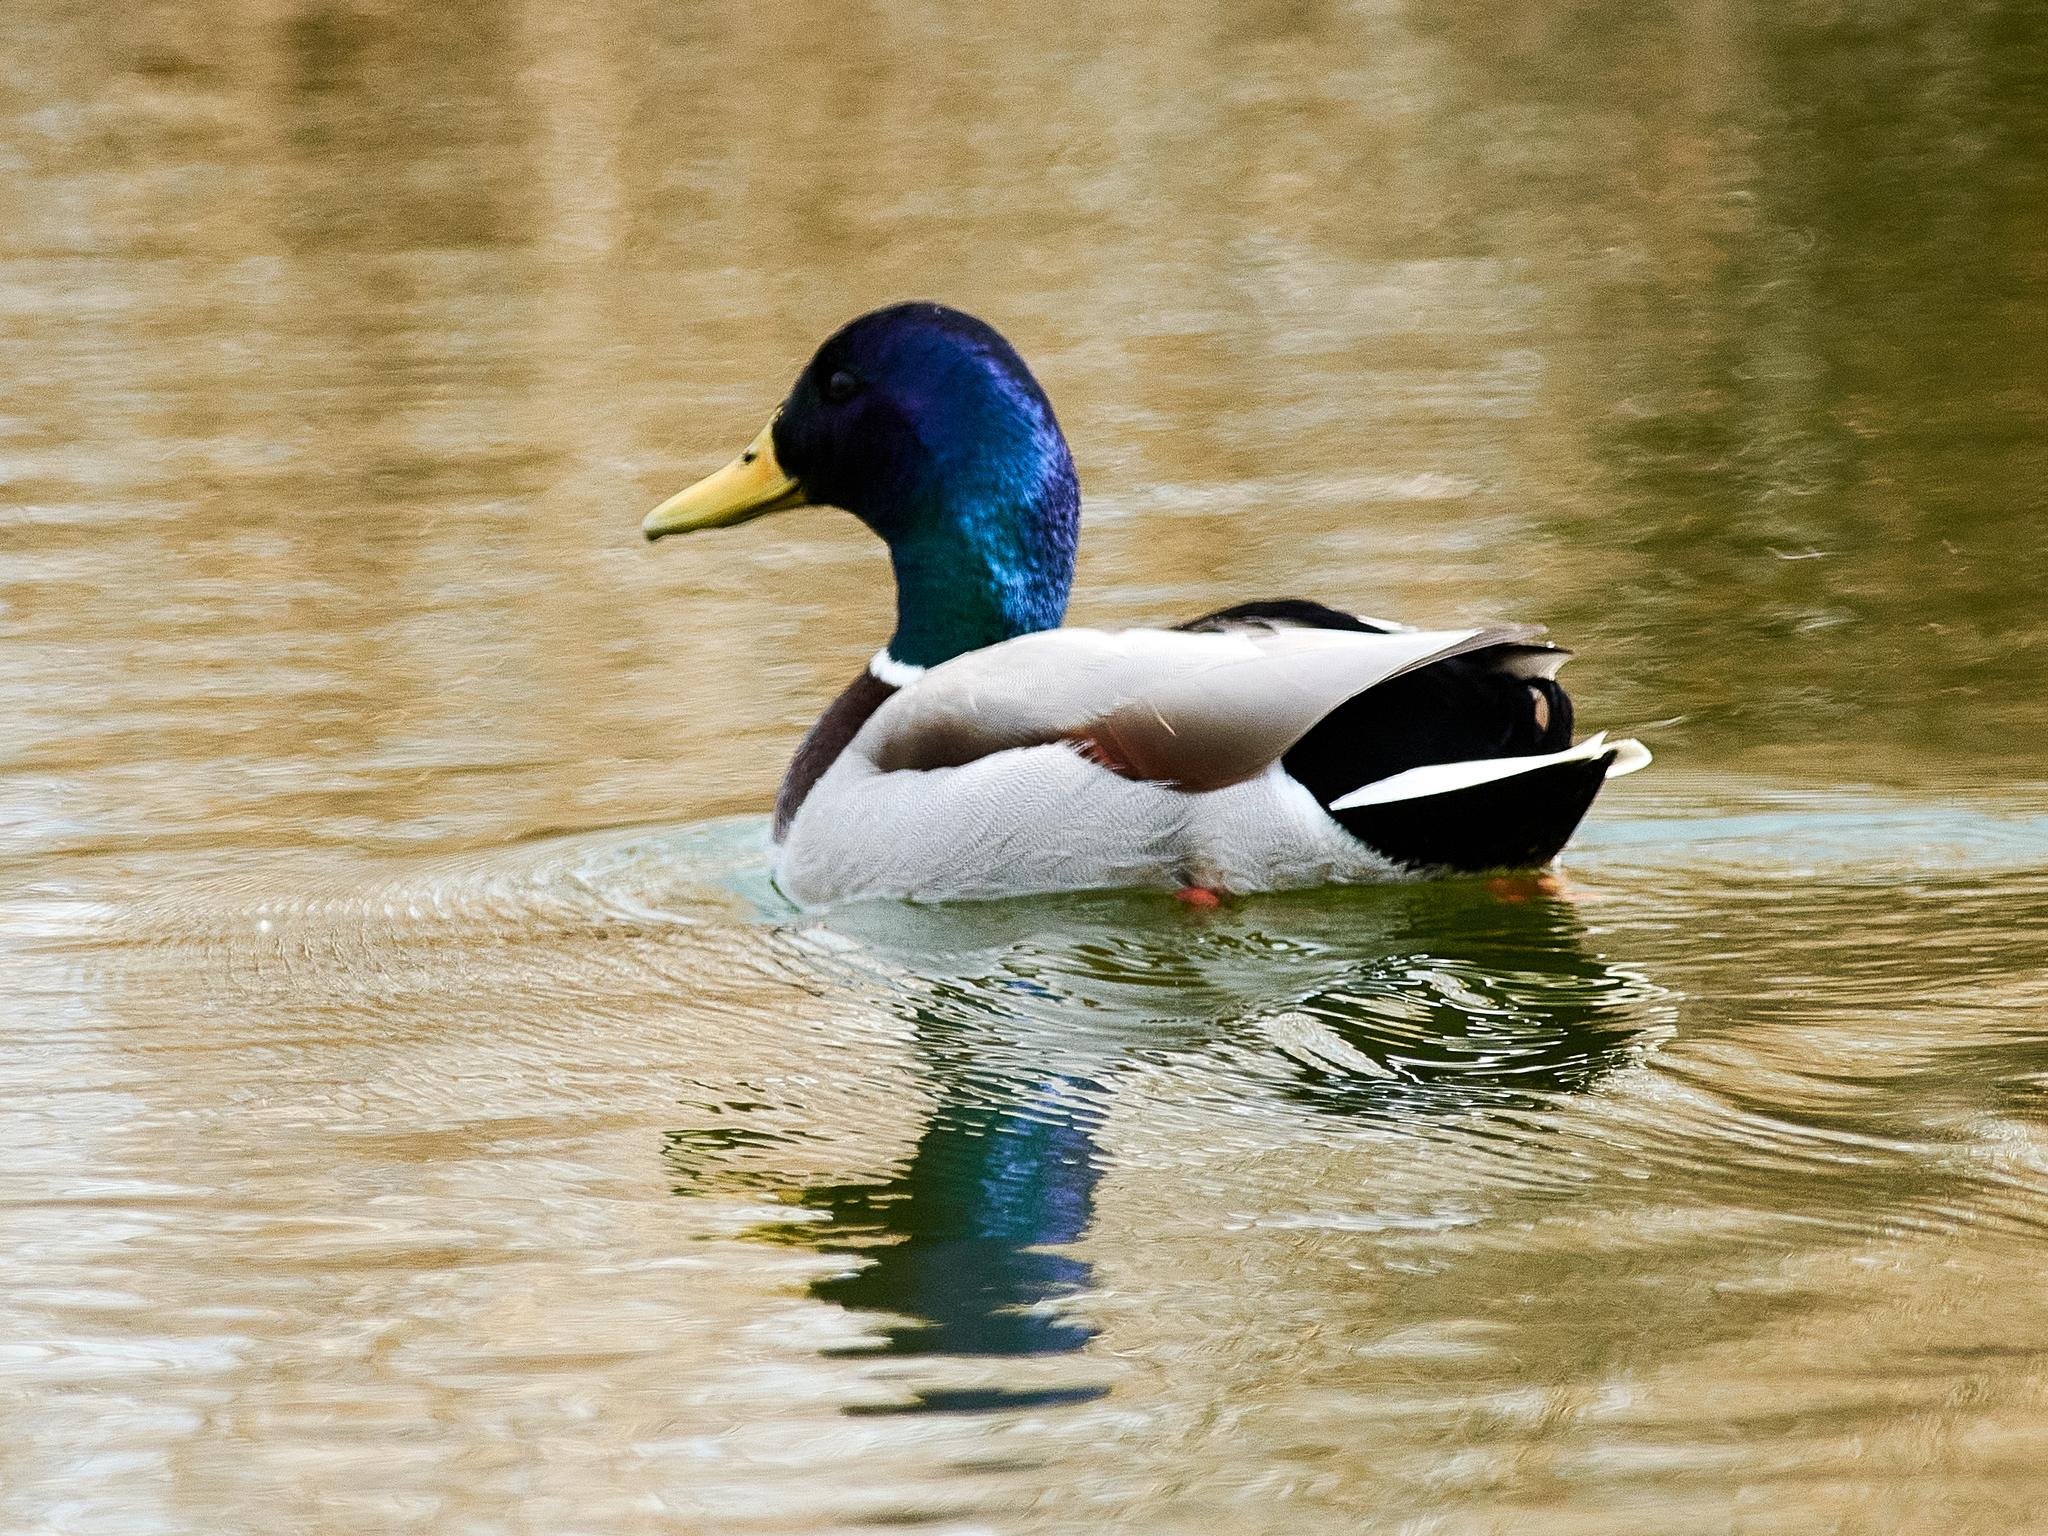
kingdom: Animalia
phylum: Chordata
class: Aves
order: Anseriformes
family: Anatidae
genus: Anas
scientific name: Anas platyrhynchos
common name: Mallard
